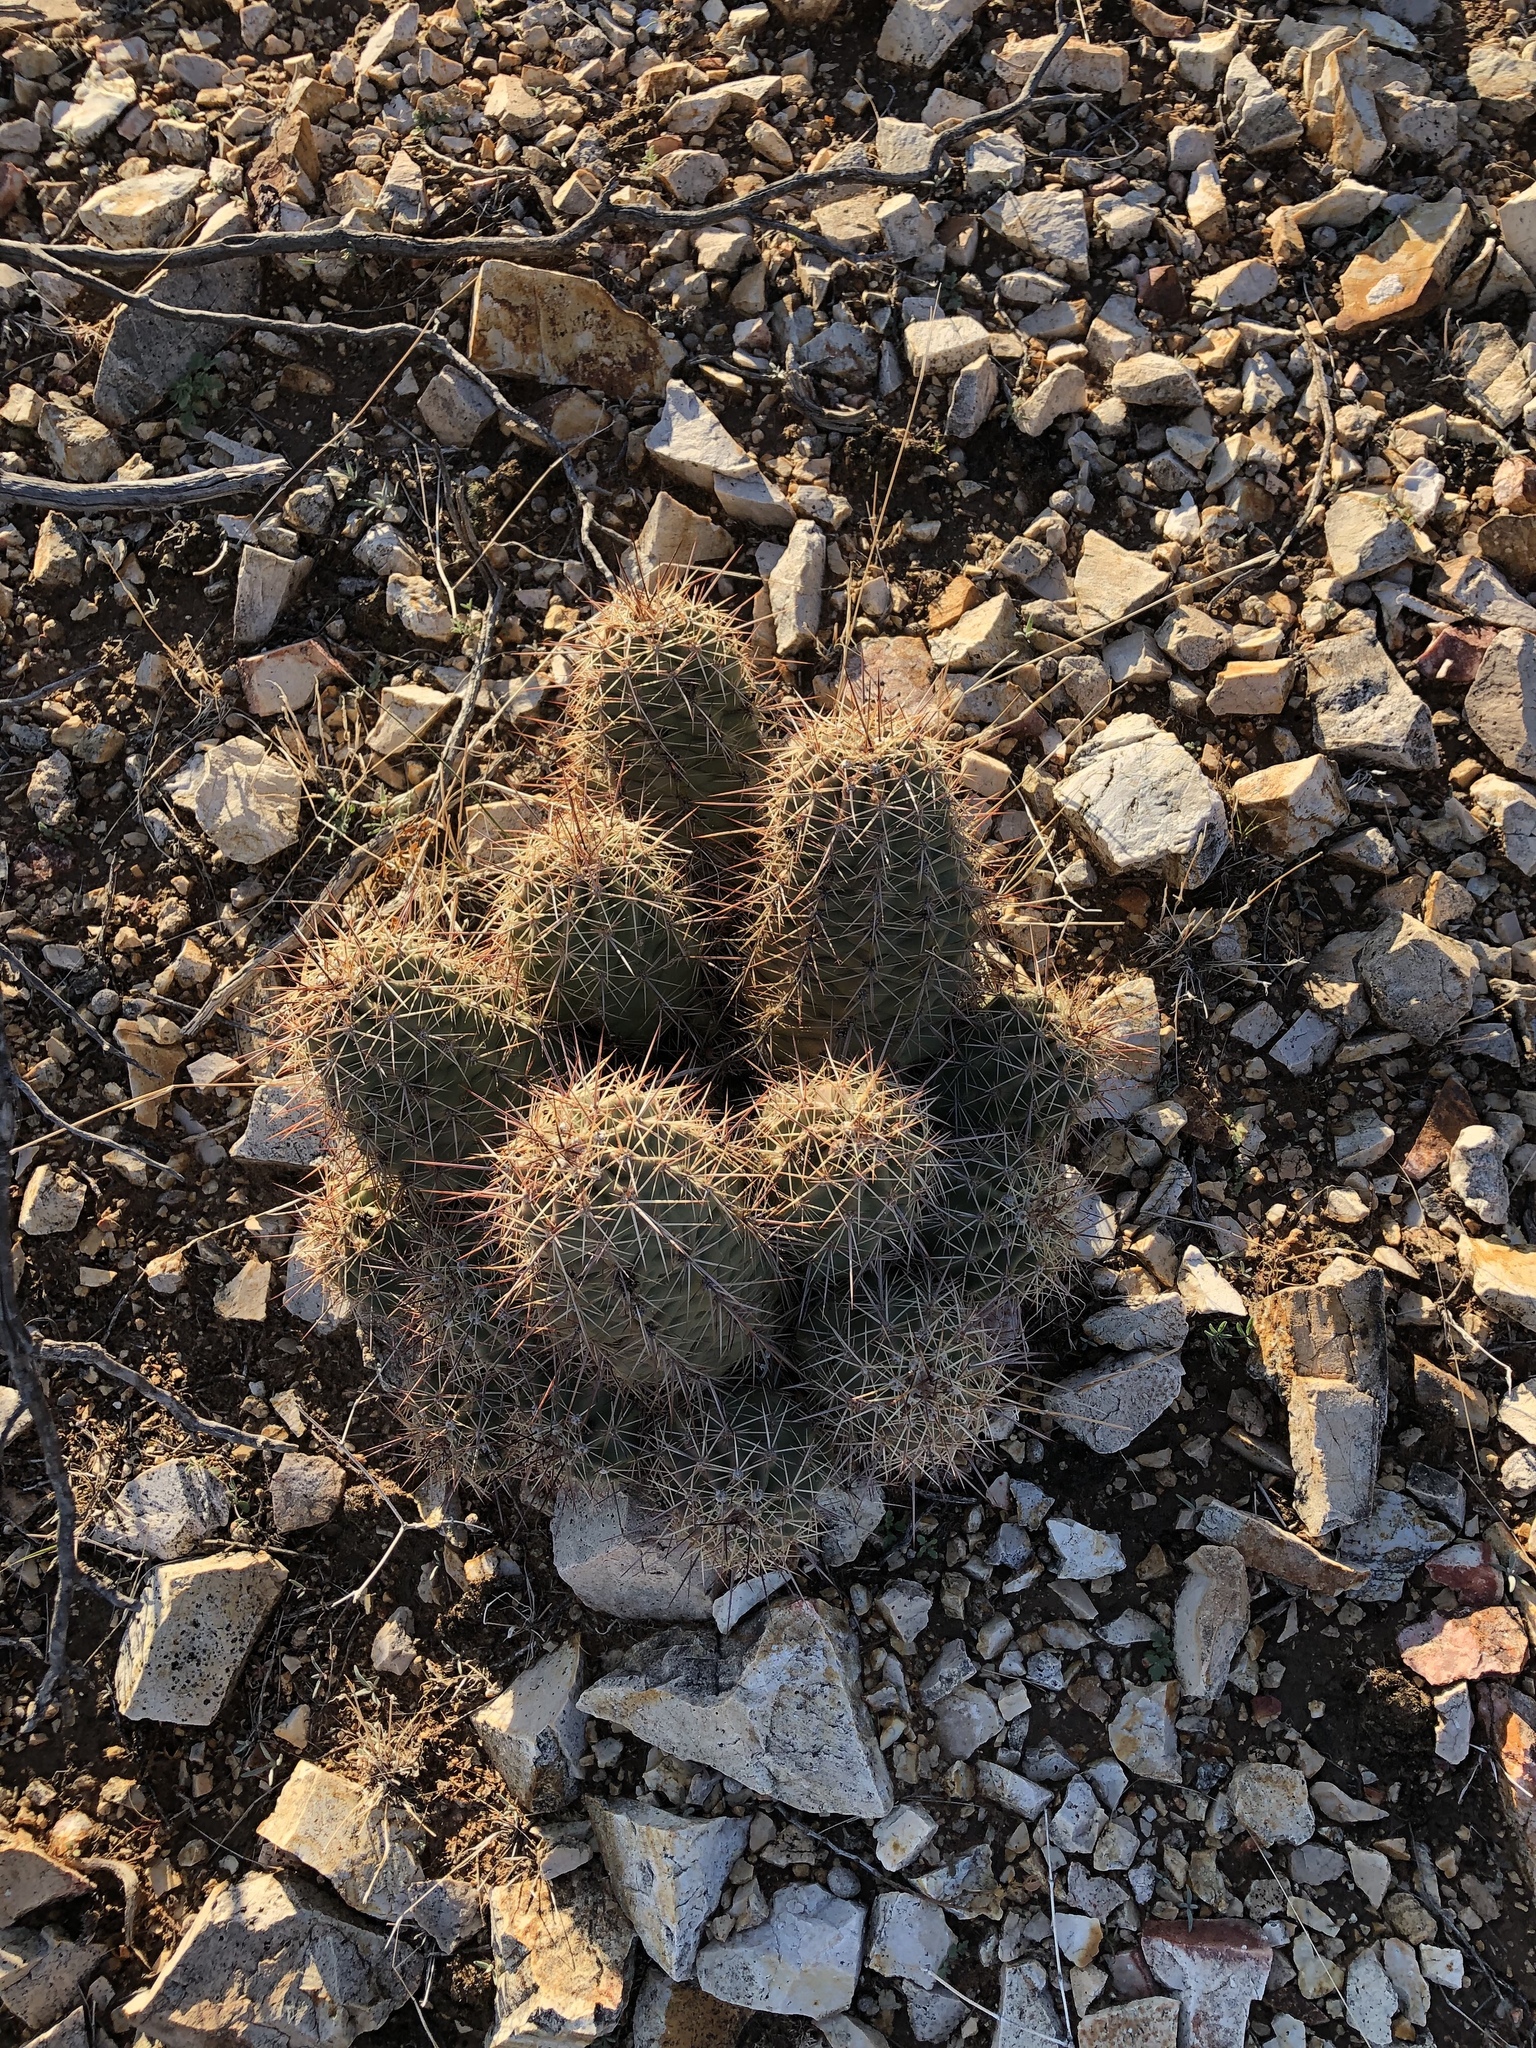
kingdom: Plantae
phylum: Tracheophyta
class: Magnoliopsida
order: Caryophyllales
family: Cactaceae
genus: Echinocereus
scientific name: Echinocereus coccineus
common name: Scarlet hedgehog cactus
